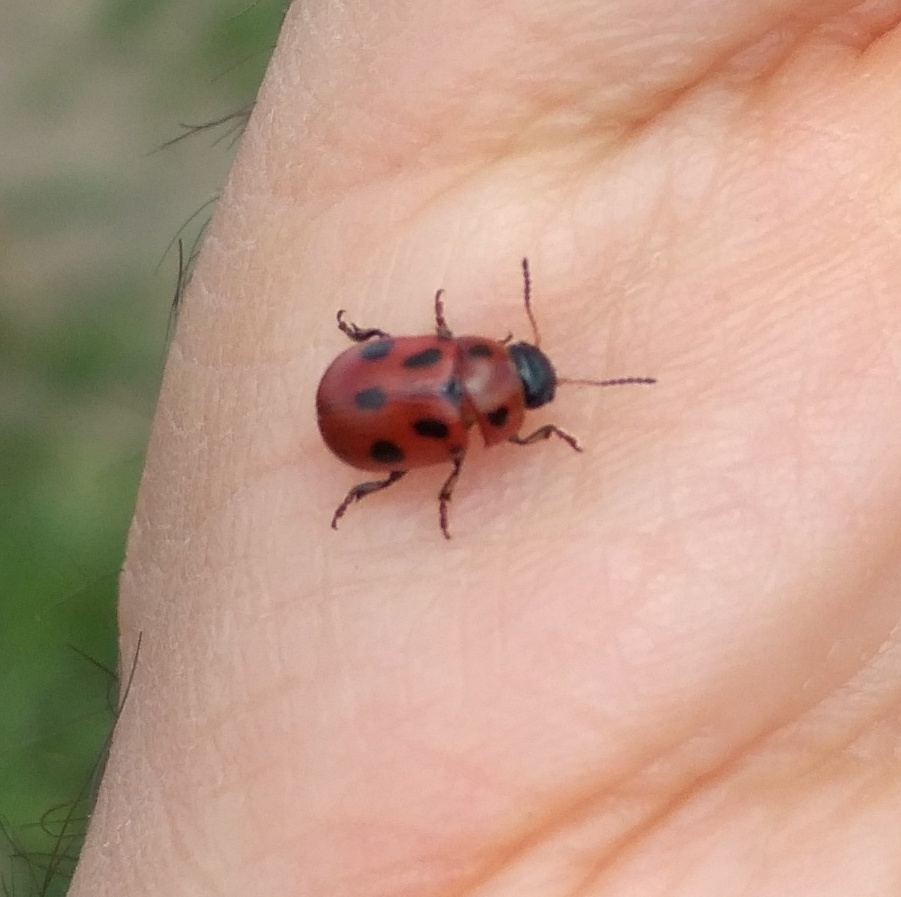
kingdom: Animalia
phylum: Arthropoda
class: Insecta
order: Coleoptera
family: Chrysomelidae
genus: Gonioctena
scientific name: Gonioctena fornicata
